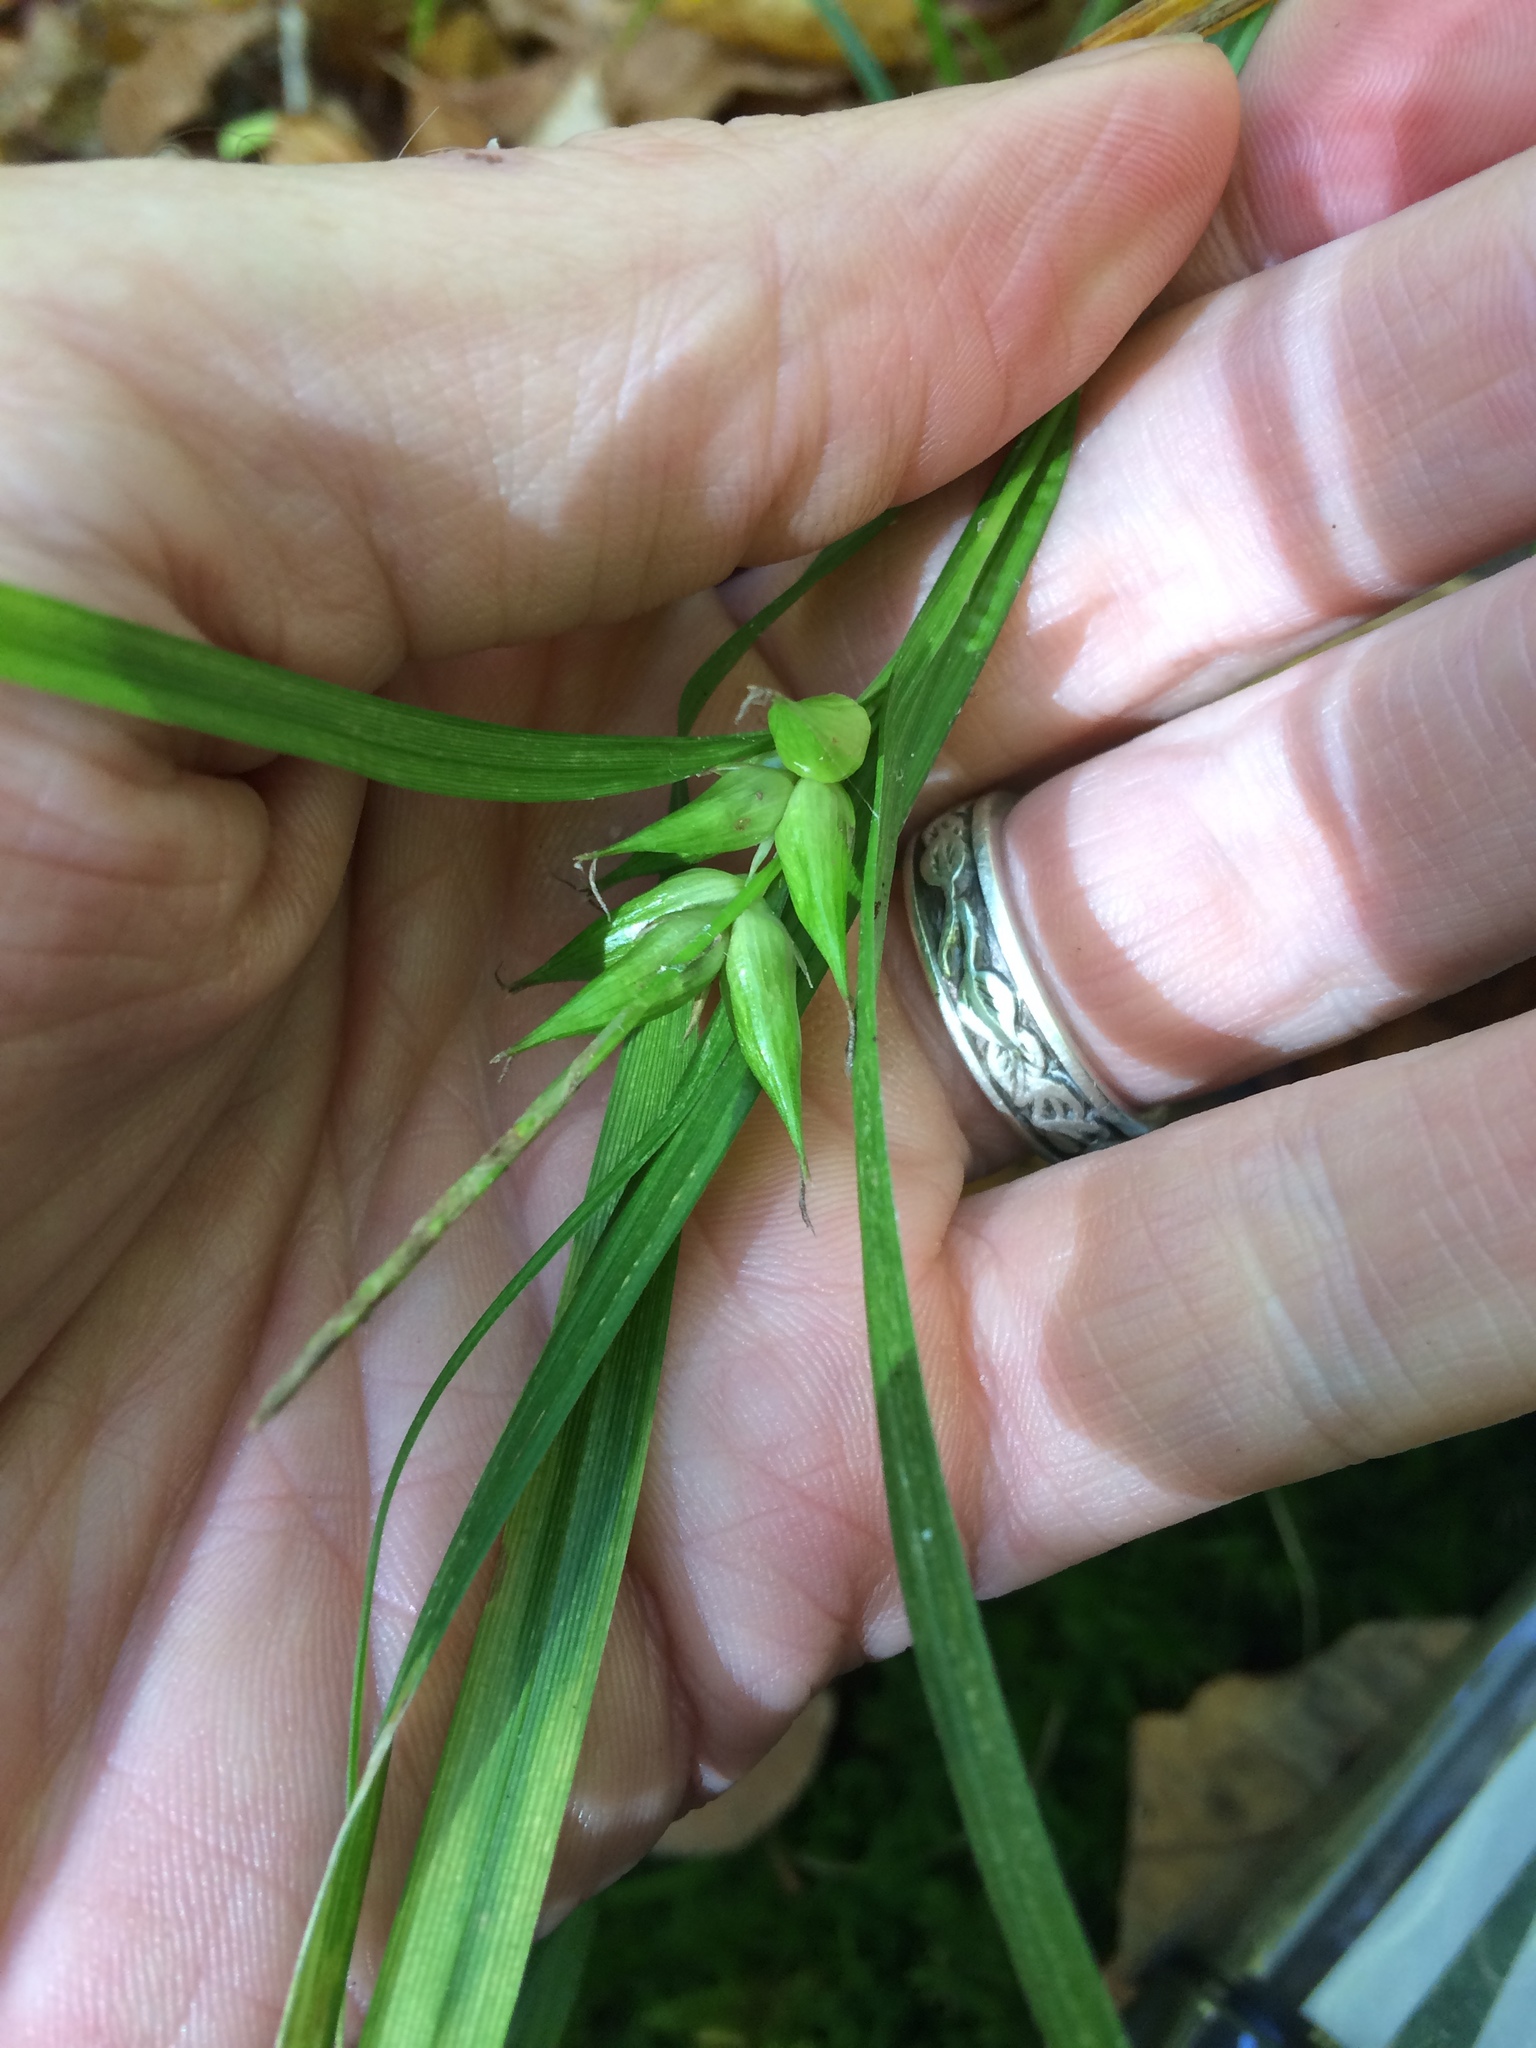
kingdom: Plantae
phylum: Tracheophyta
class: Liliopsida
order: Poales
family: Cyperaceae
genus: Carex
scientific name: Carex intumescens
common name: Greater bladder sedge
